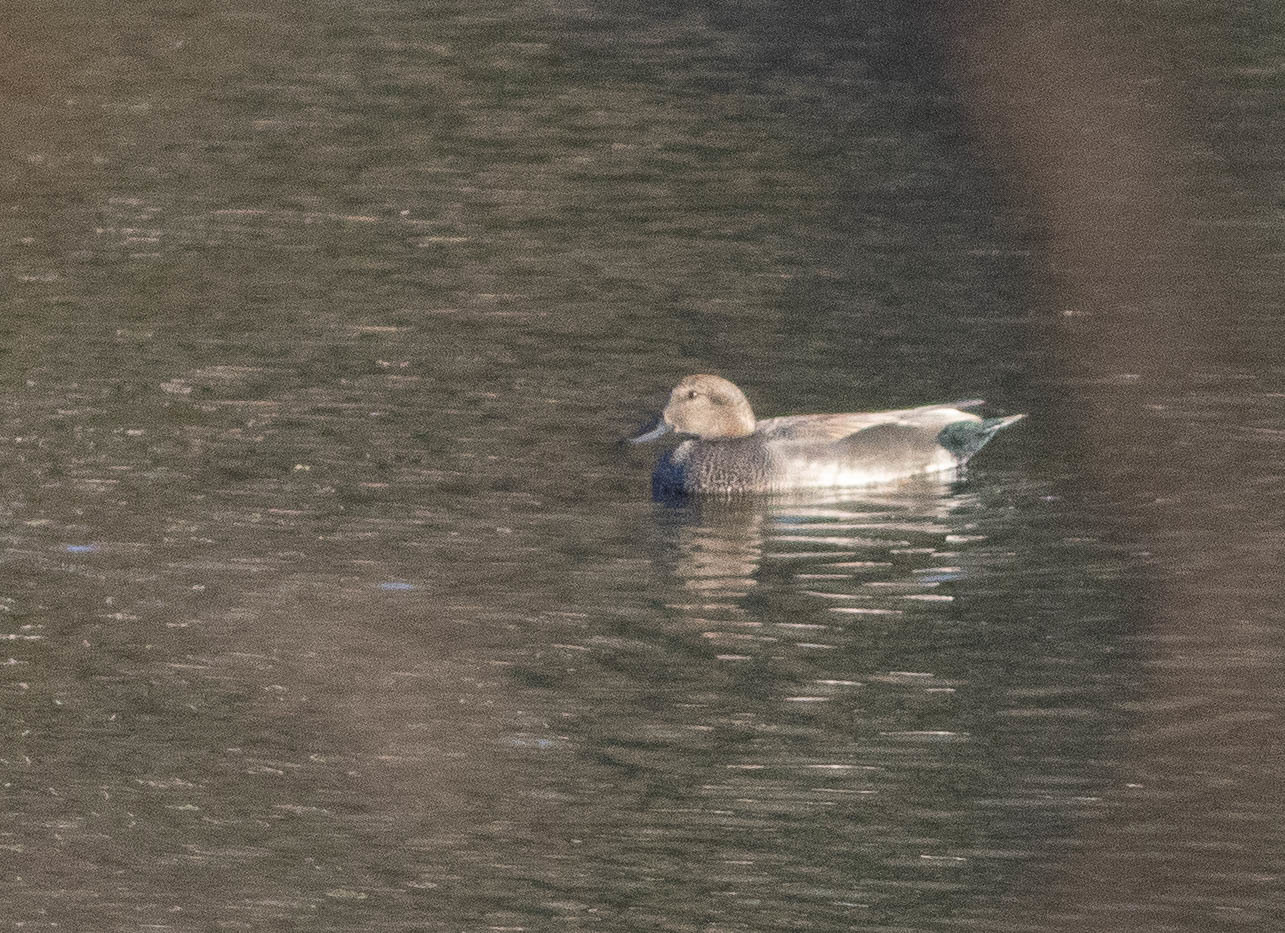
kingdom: Animalia
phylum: Chordata
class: Aves
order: Anseriformes
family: Anatidae
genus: Mareca
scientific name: Mareca strepera
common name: Gadwall
